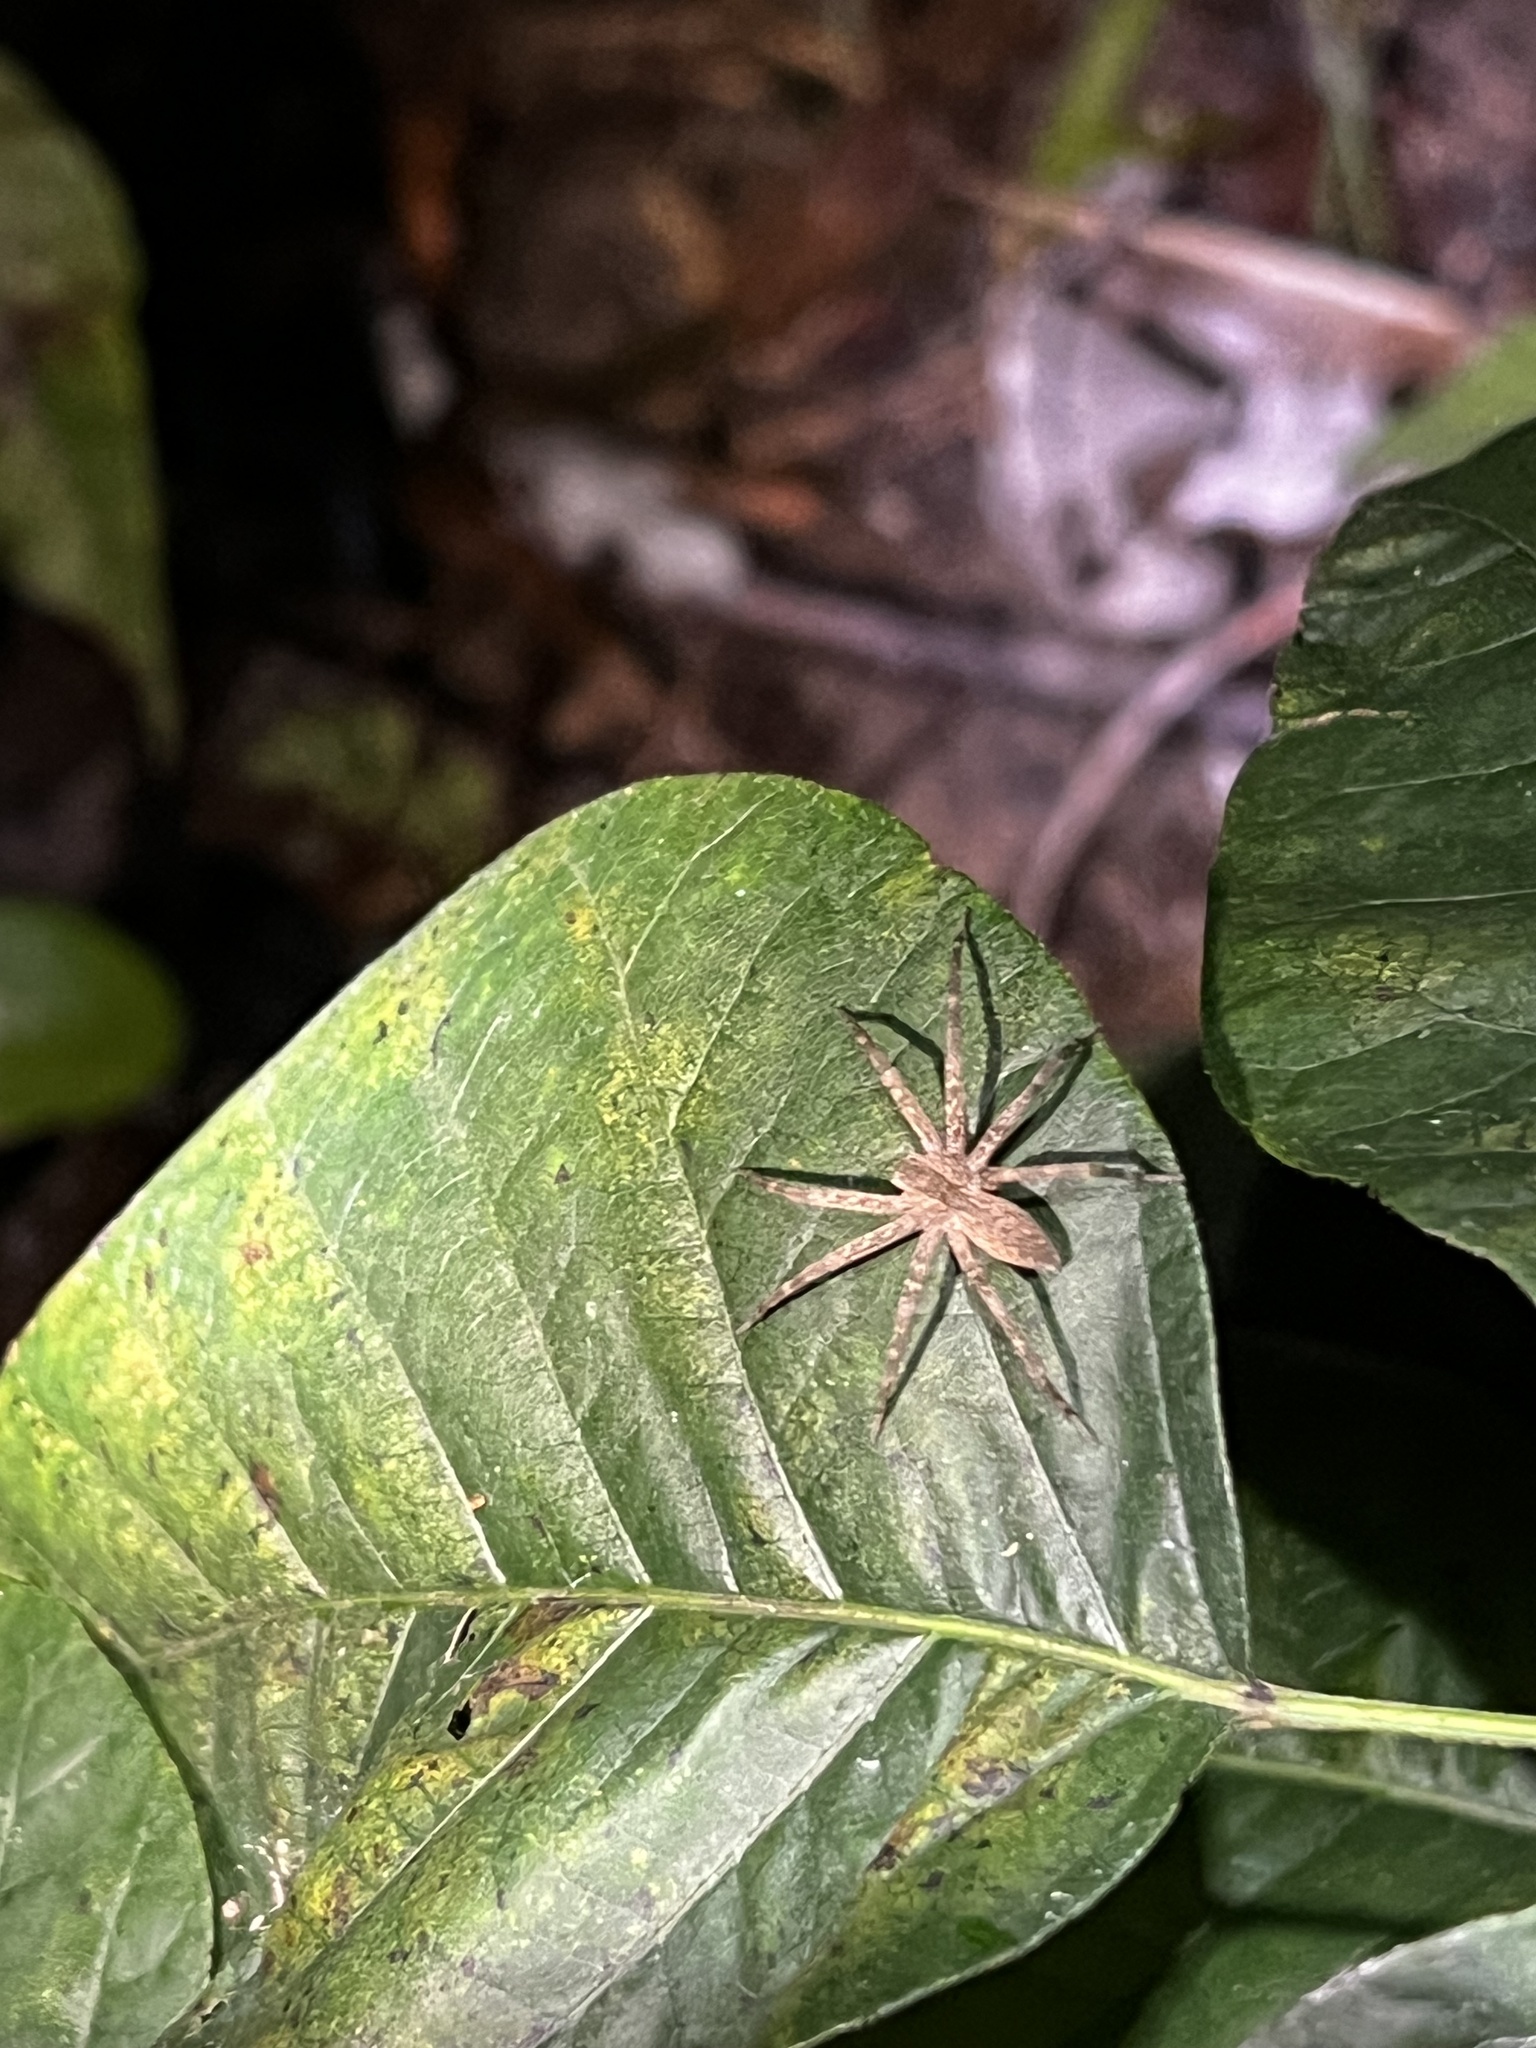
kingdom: Animalia
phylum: Arthropoda
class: Arachnida
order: Araneae
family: Pisauridae
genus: Pisaurina
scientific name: Pisaurina mira
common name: American nursery web spider
